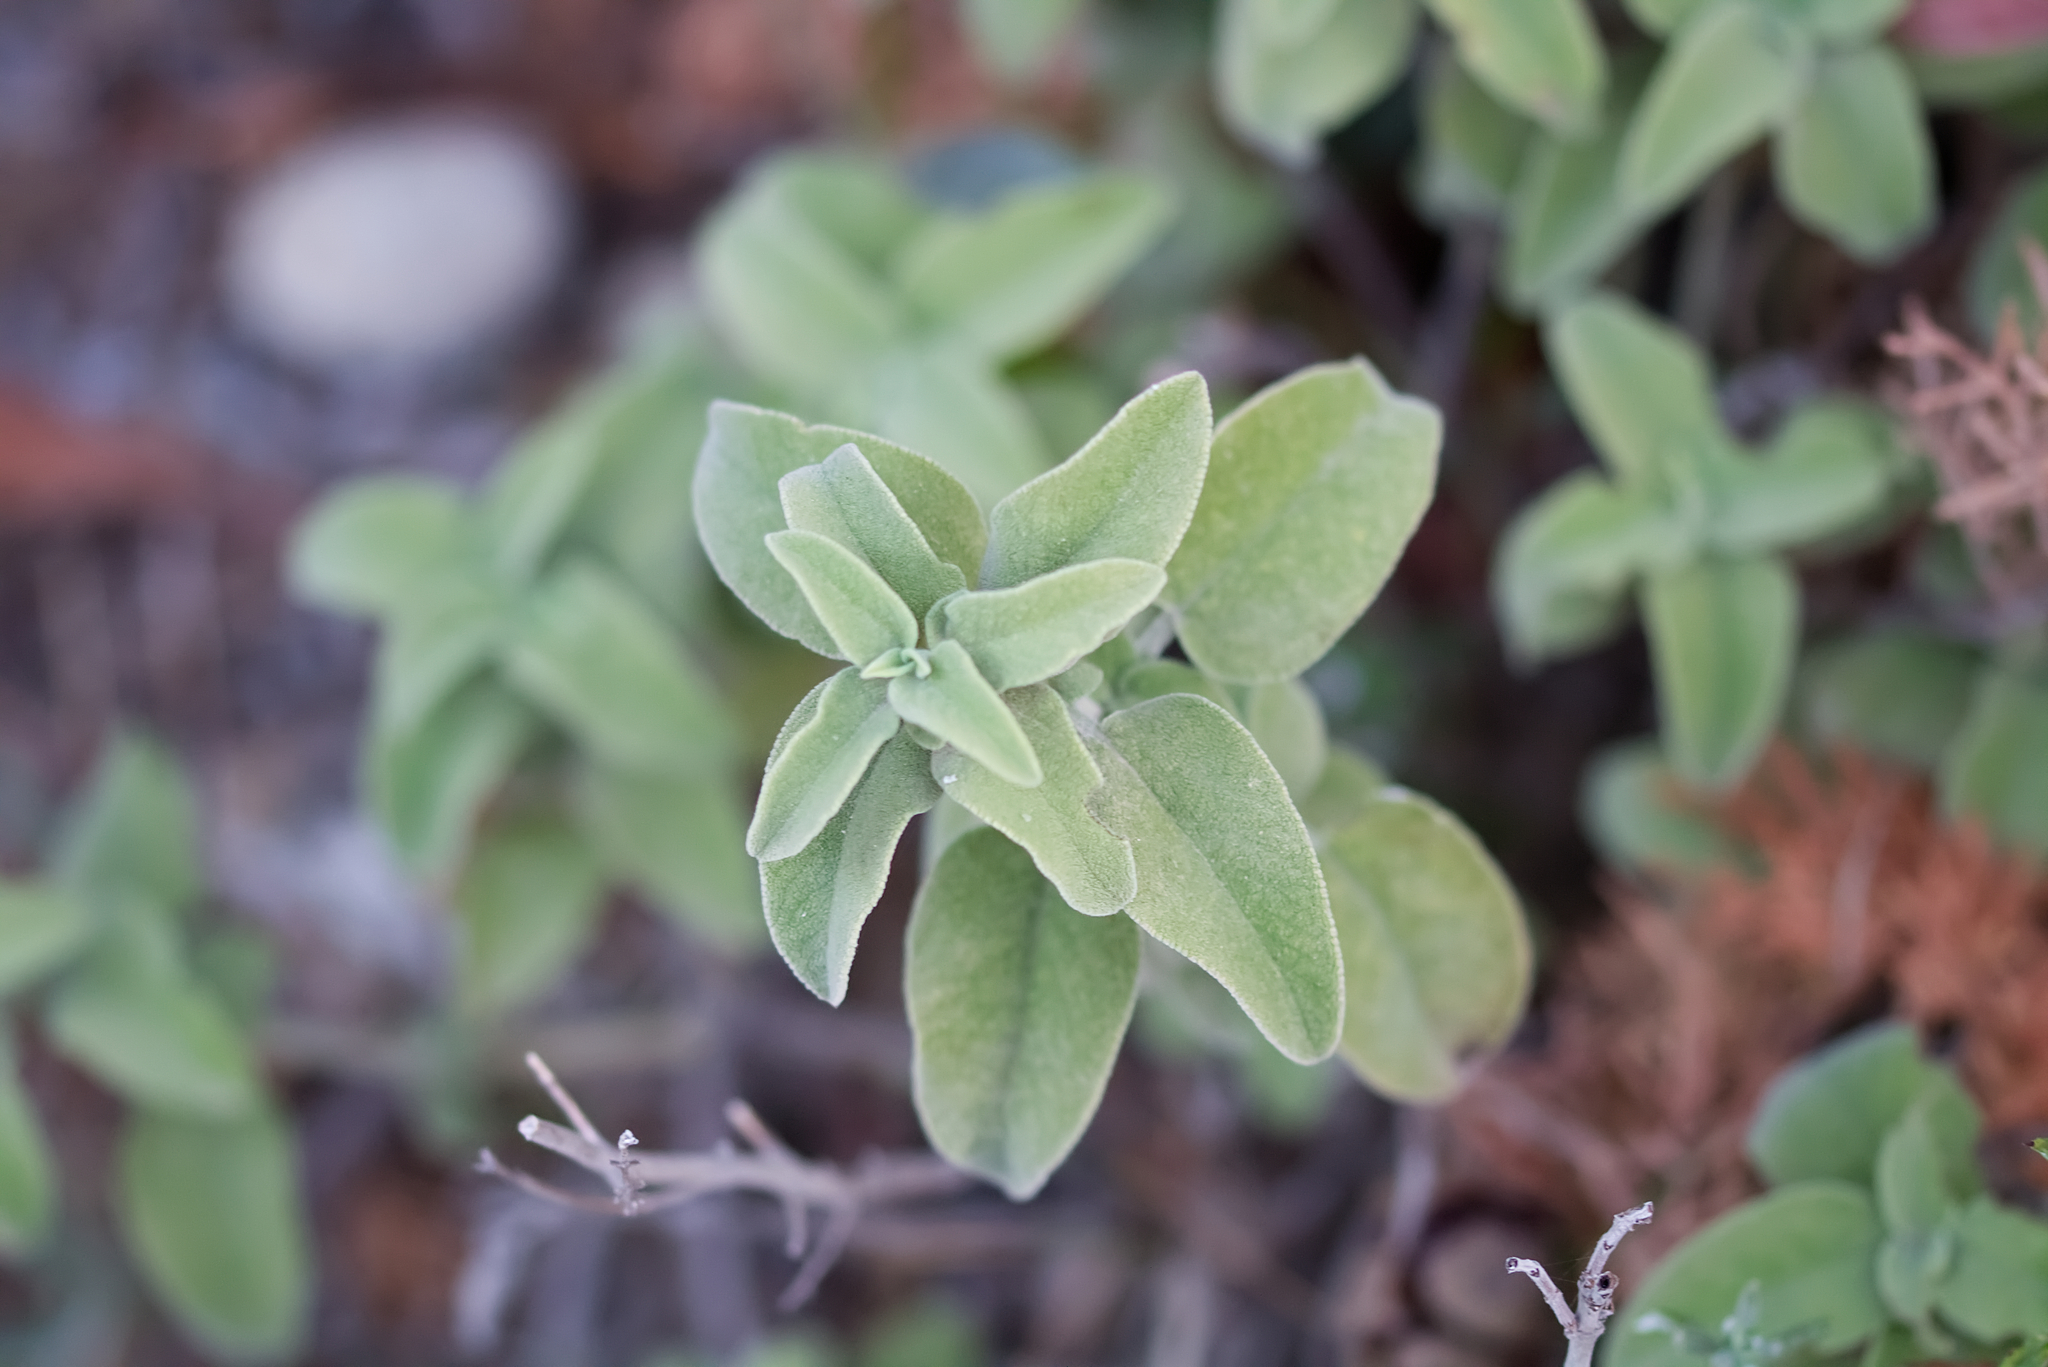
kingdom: Plantae
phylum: Tracheophyta
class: Magnoliopsida
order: Lamiales
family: Lamiaceae
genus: Salvia
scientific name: Salvia fruticosa
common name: Greek sage
